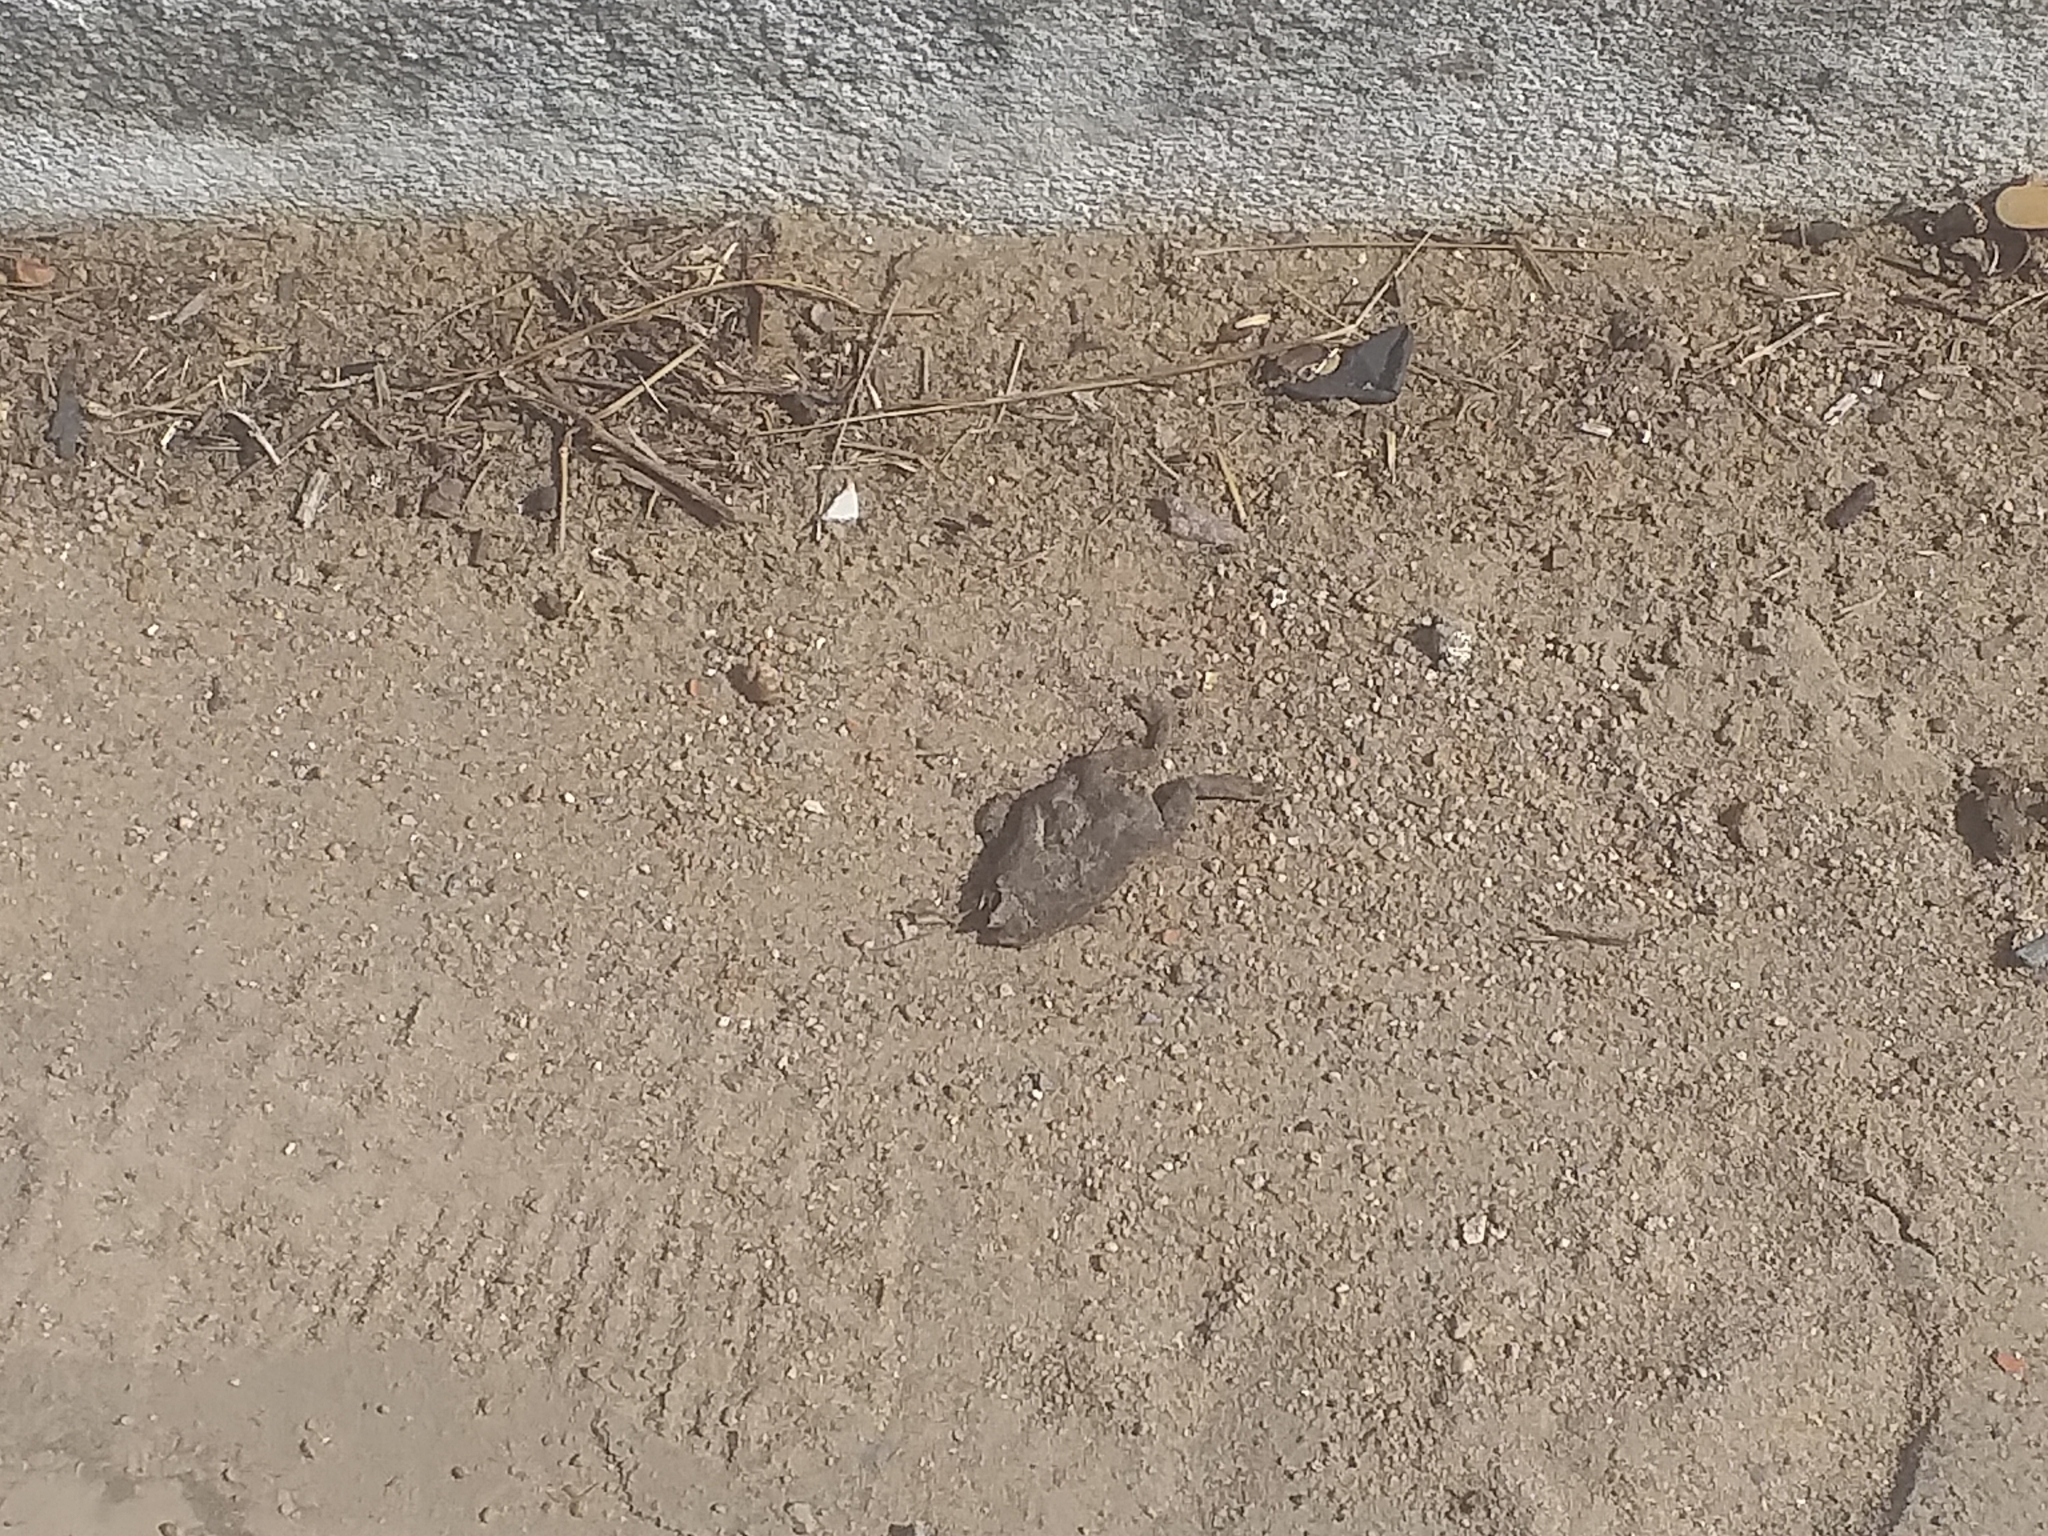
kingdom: Animalia
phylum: Chordata
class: Amphibia
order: Anura
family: Bufonidae
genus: Rhinella
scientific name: Rhinella granulosa
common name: Common lesser toad
